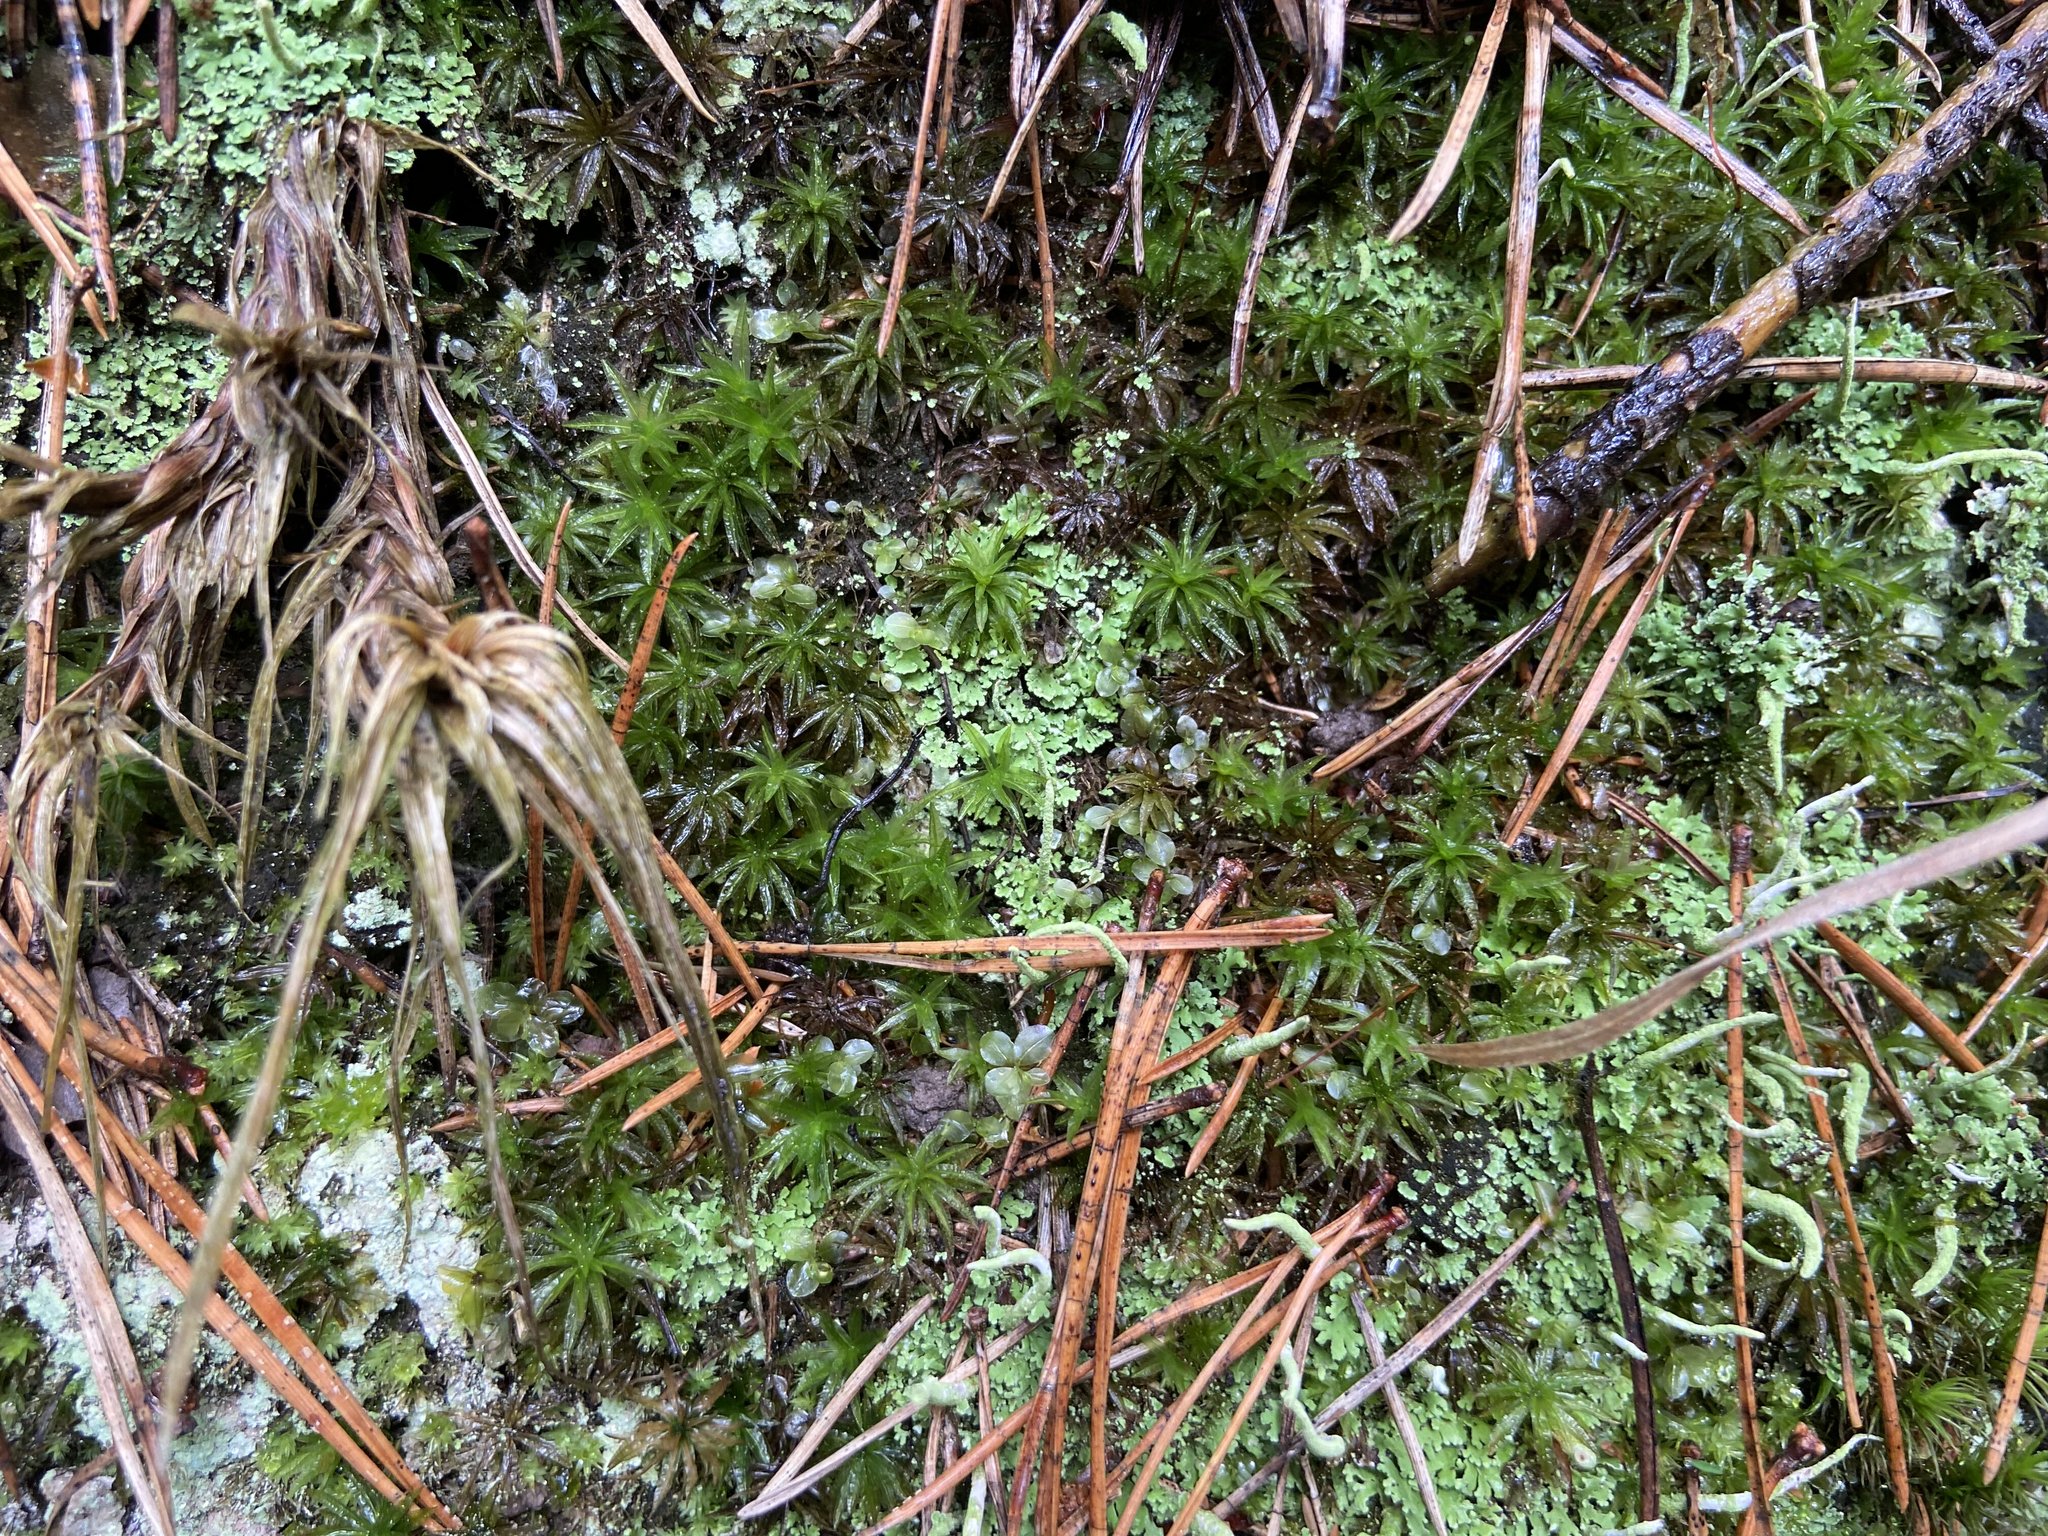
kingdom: Plantae
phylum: Bryophyta
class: Polytrichopsida
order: Polytrichales
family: Polytrichaceae
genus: Atrichum
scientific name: Atrichum undulatum
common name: Common smoothcap
